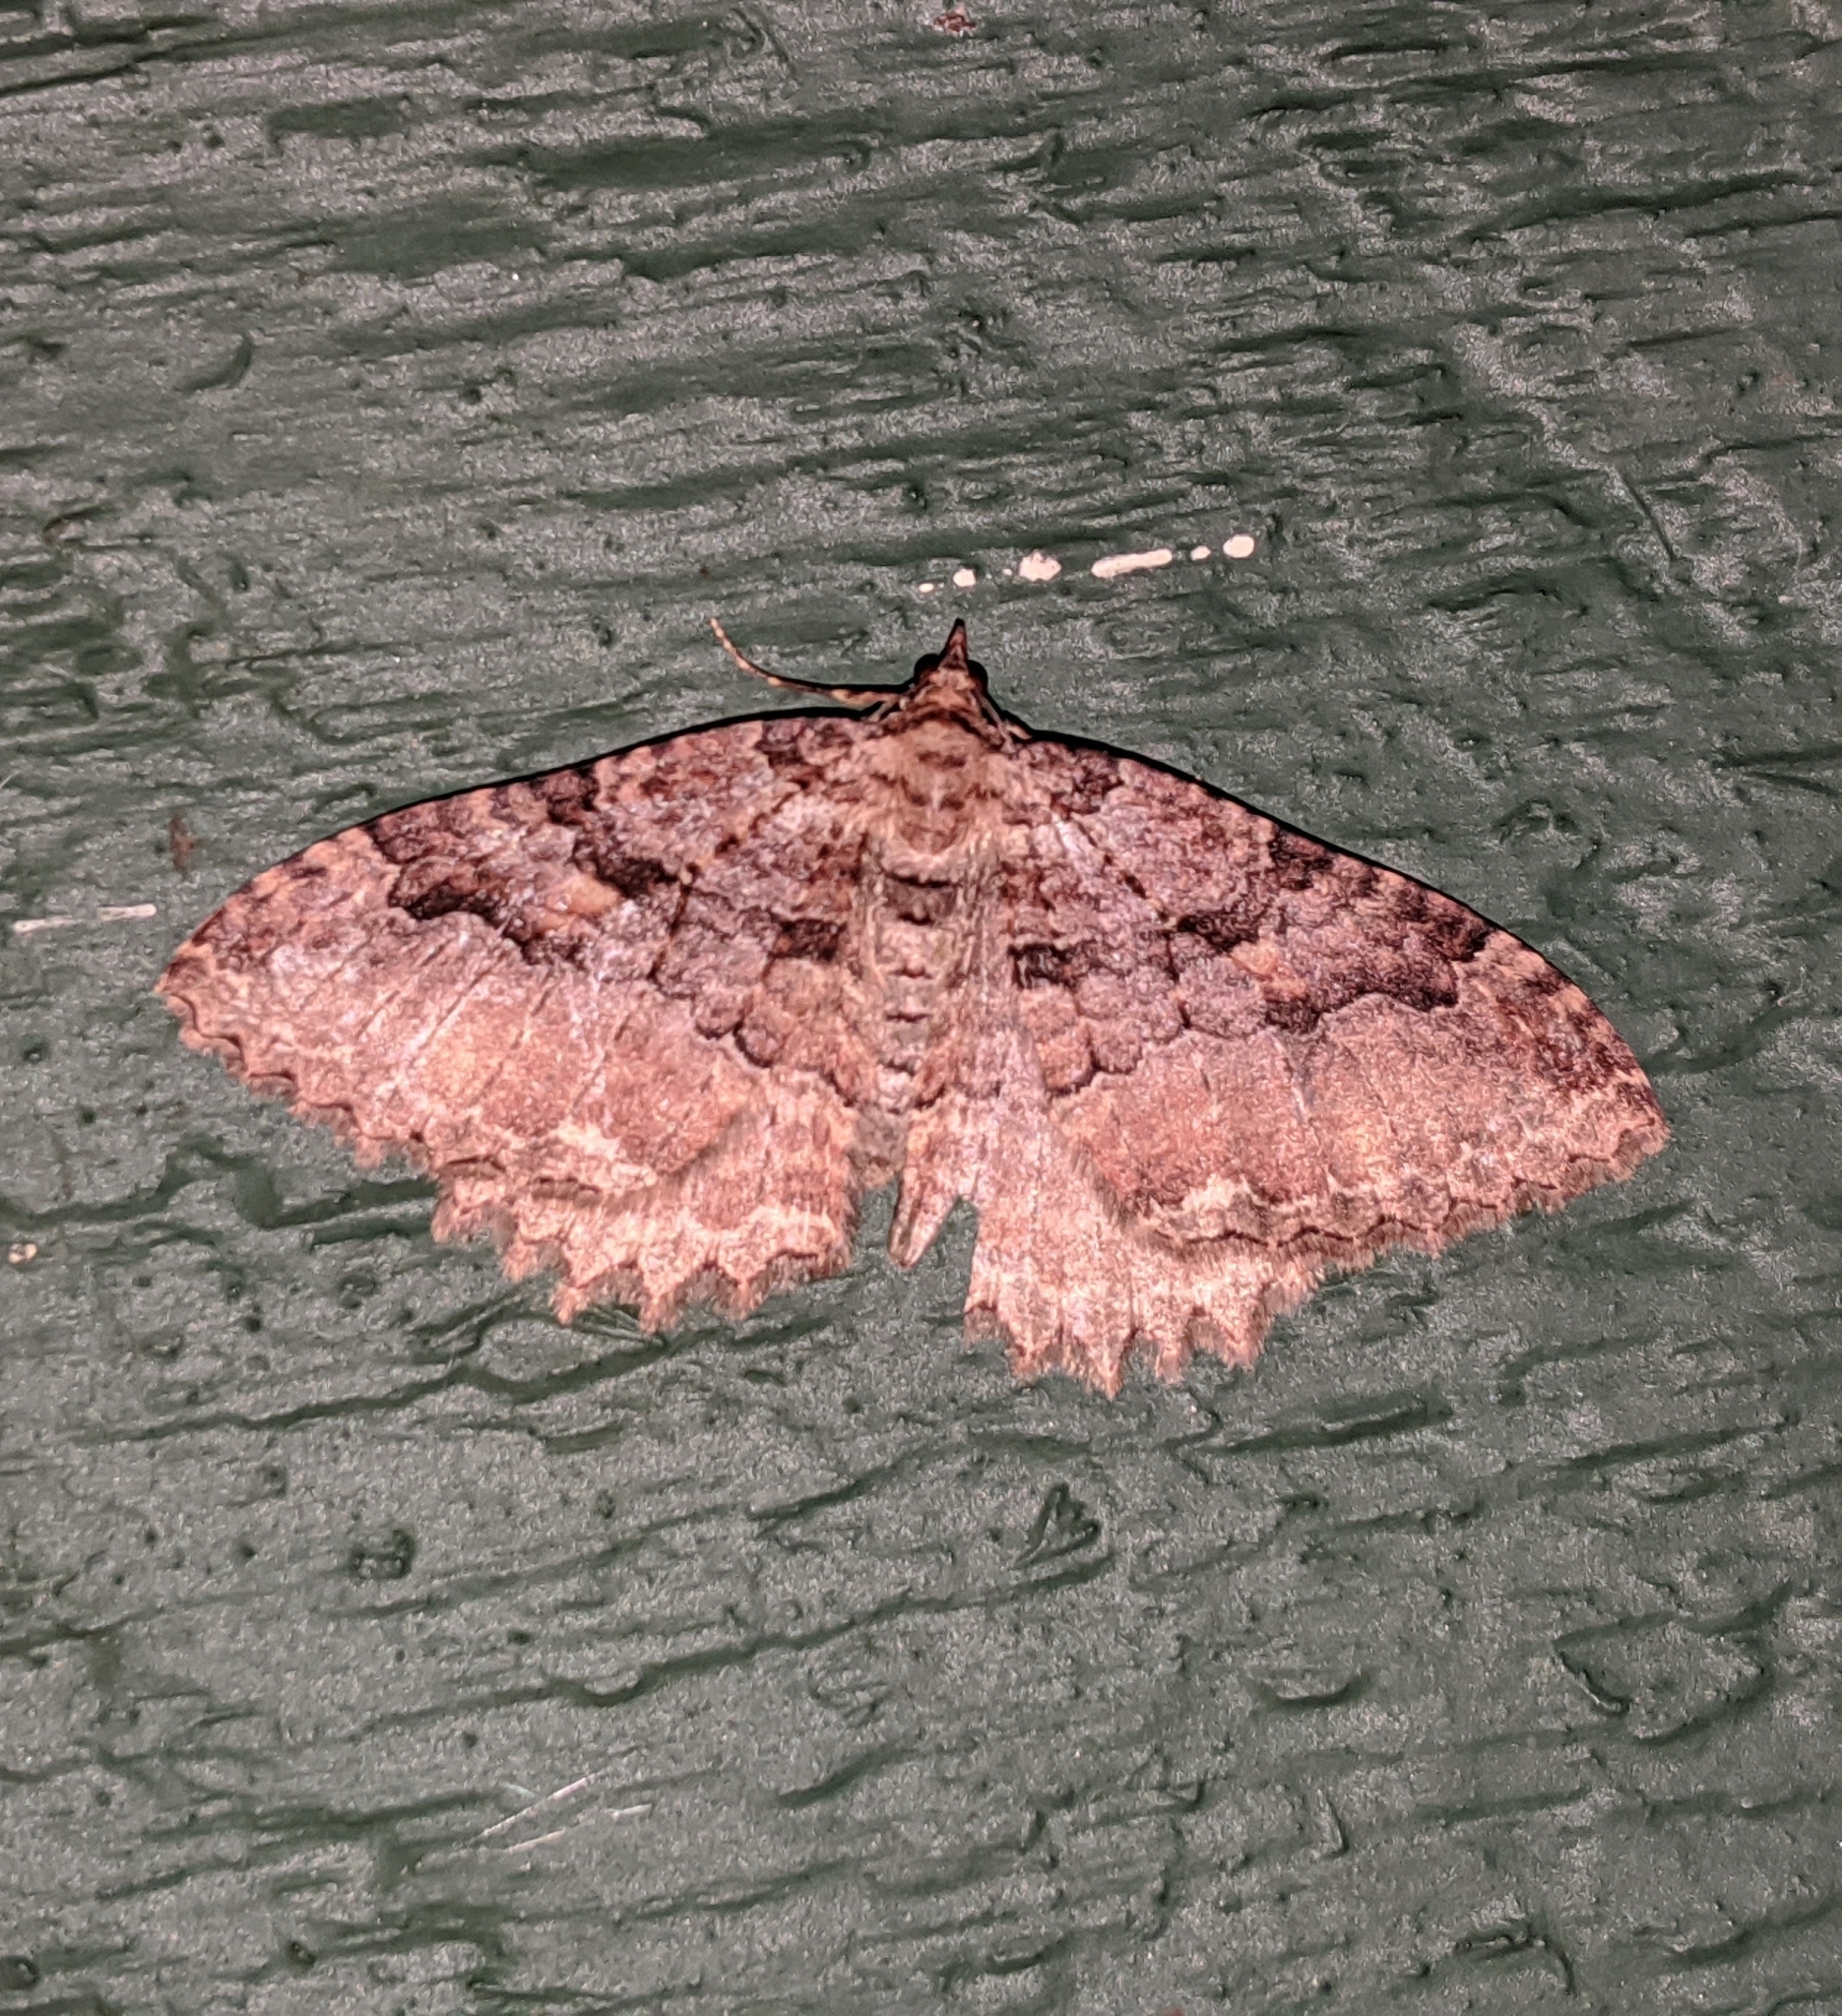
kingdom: Animalia
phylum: Arthropoda
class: Insecta
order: Lepidoptera
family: Geometridae
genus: Triphosa
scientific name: Triphosa haesitata
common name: Tissue moth
